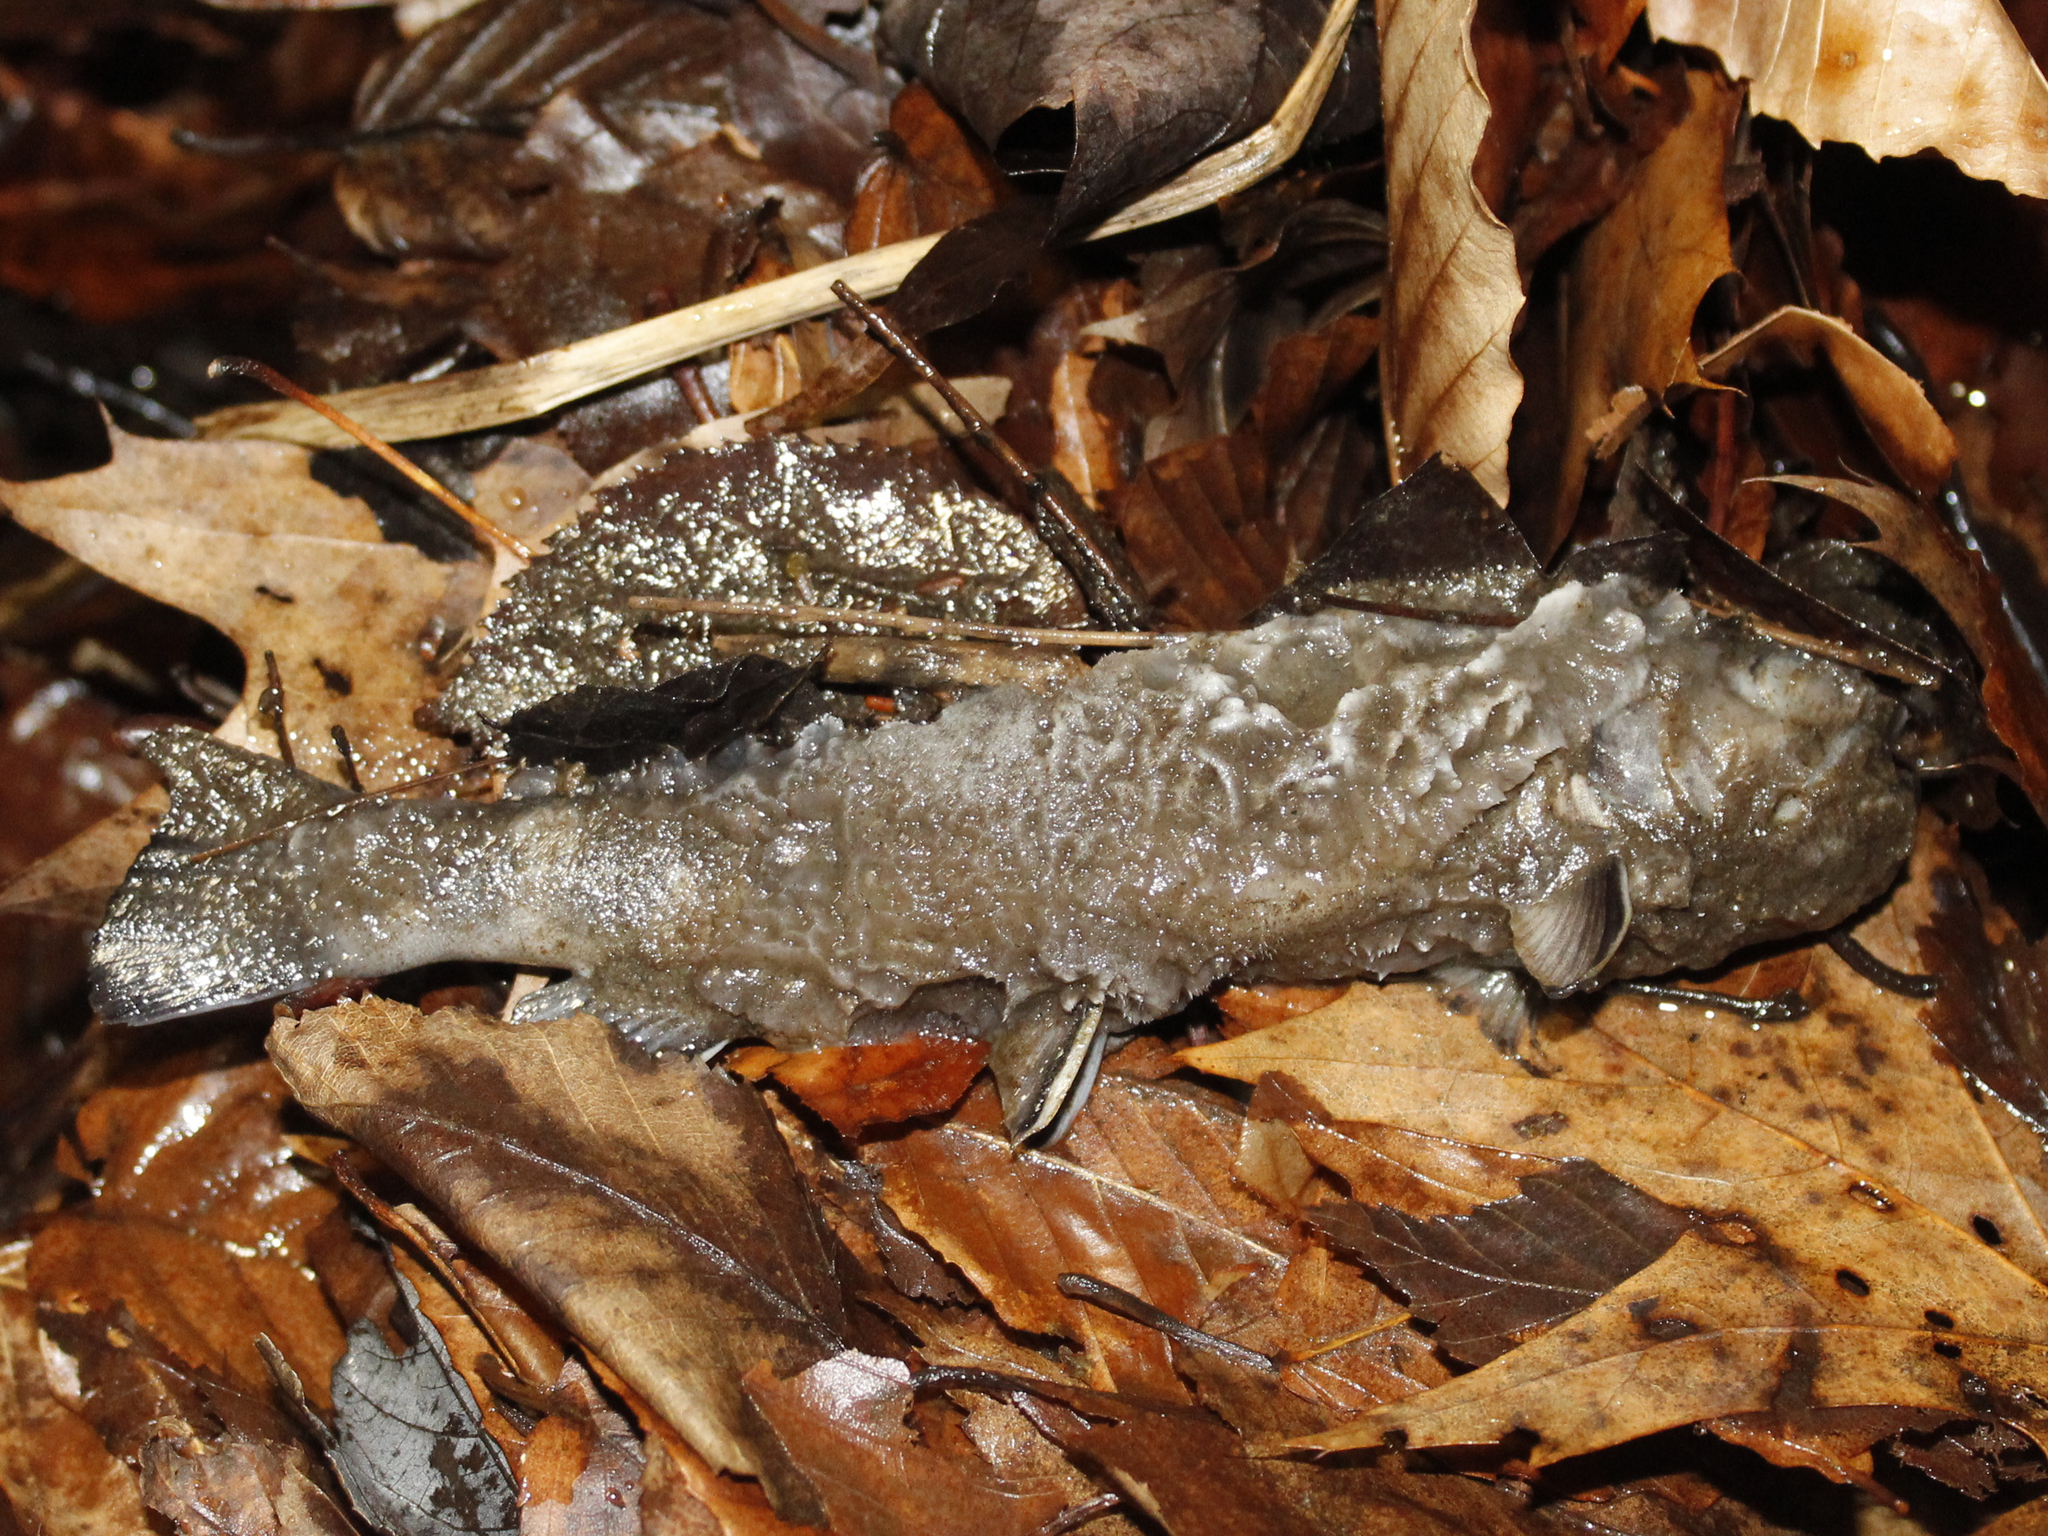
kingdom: Animalia
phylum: Chordata
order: Salmoniformes
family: Salmonidae
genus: Salvelinus
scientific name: Salvelinus fontinalis
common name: Brook trout
